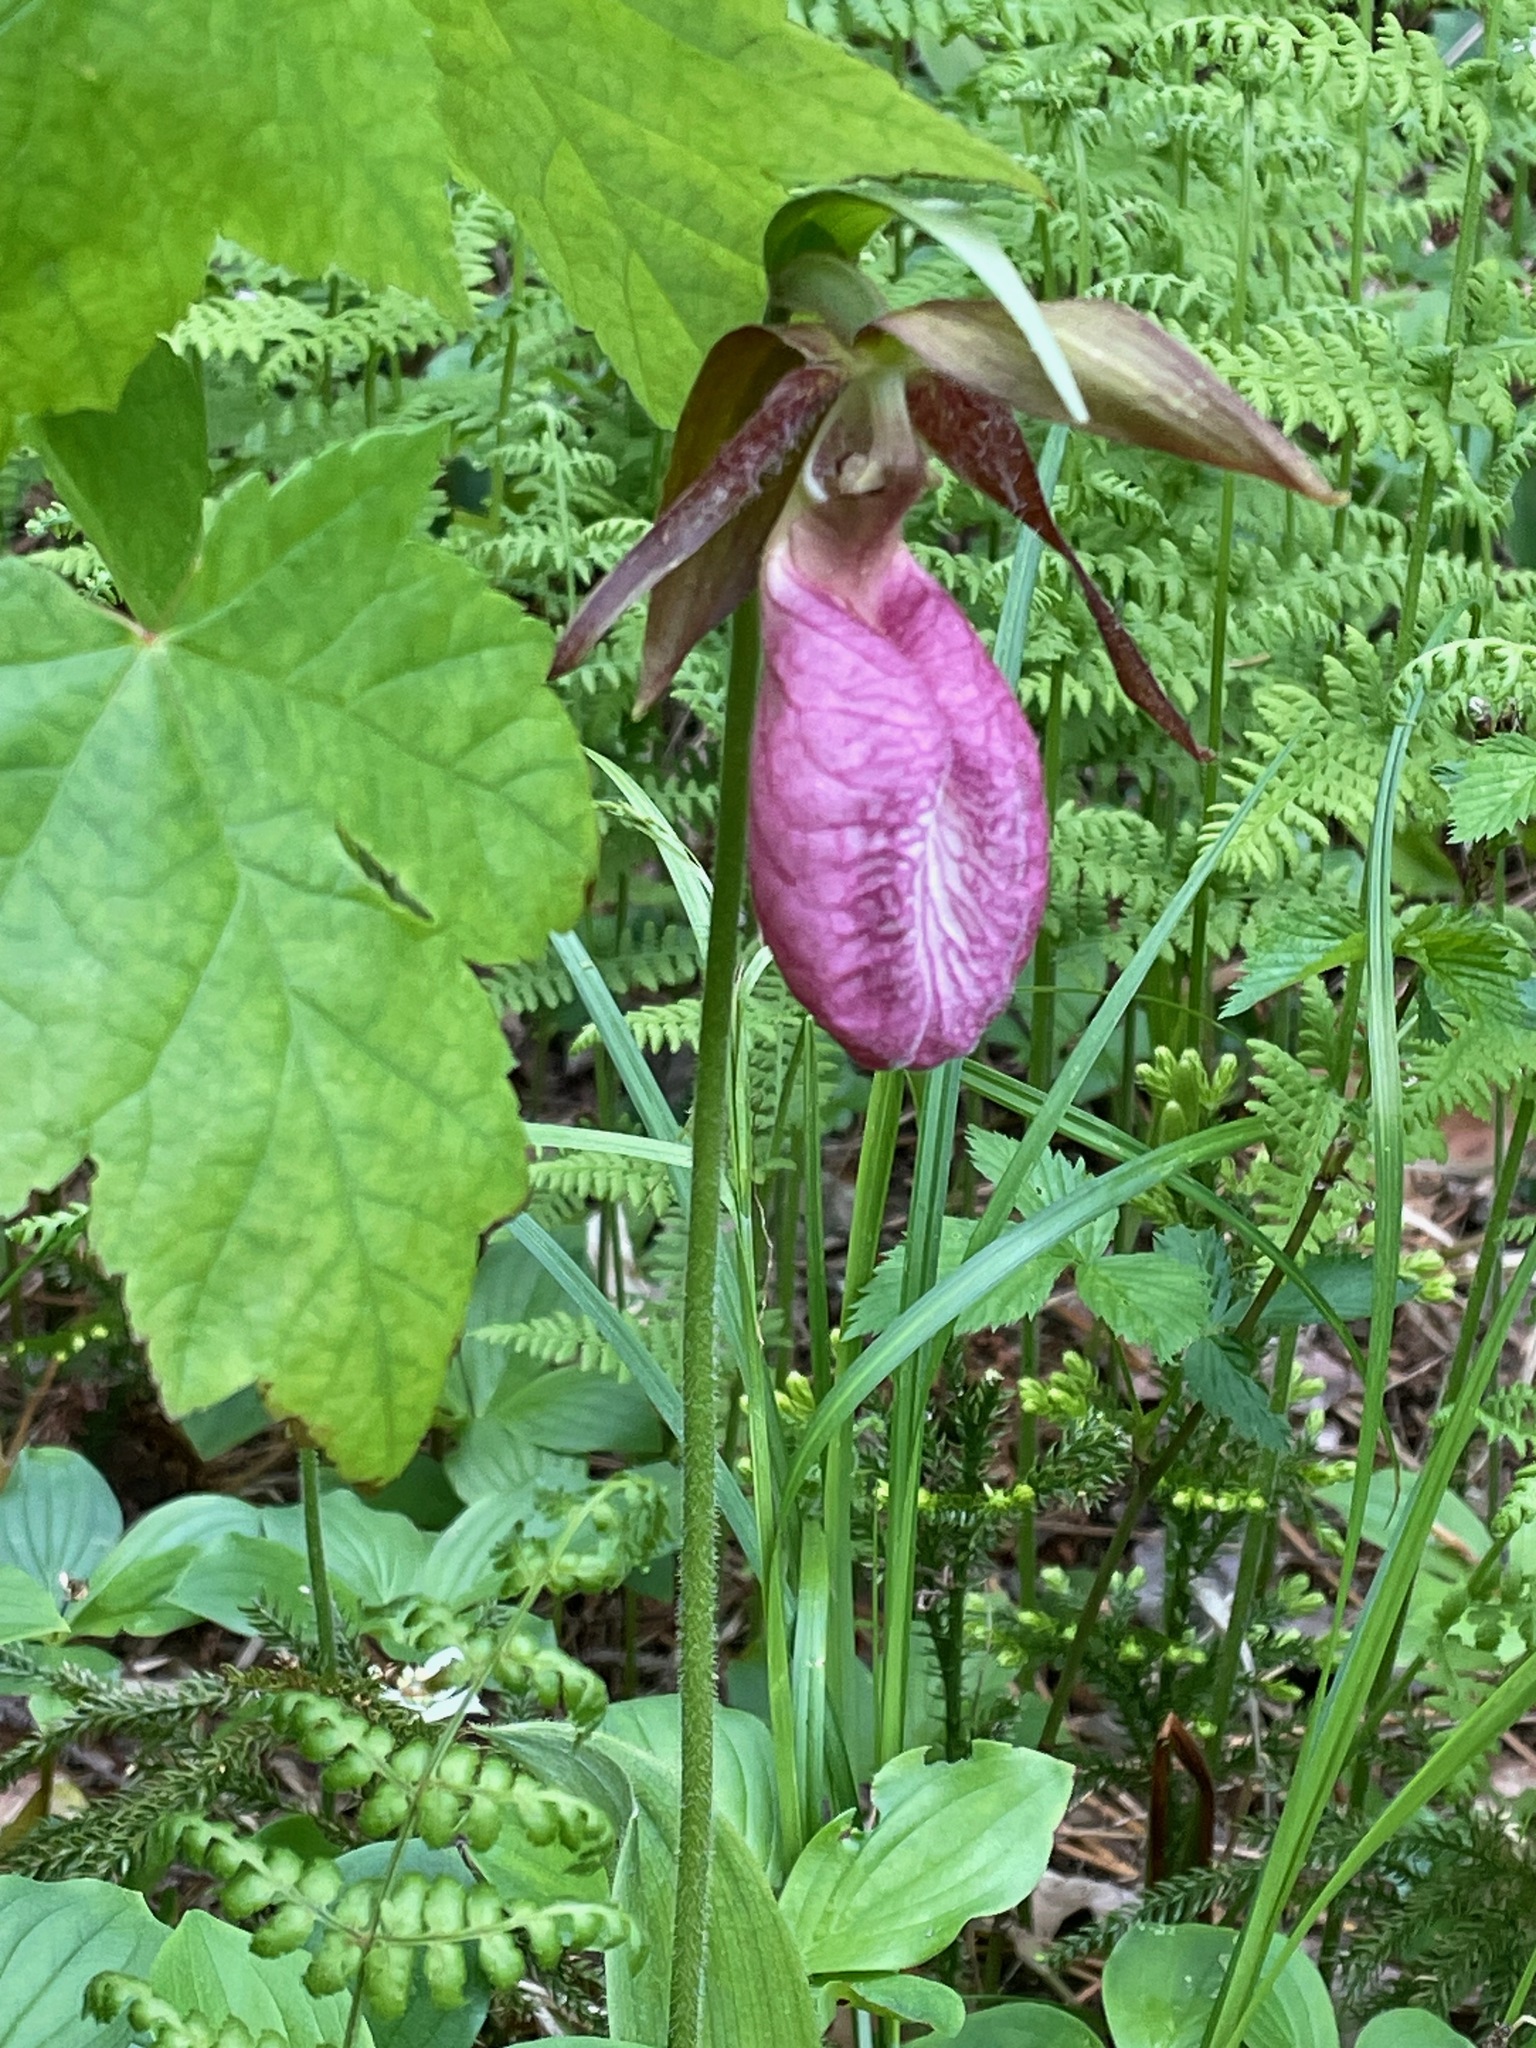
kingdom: Plantae
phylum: Tracheophyta
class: Liliopsida
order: Asparagales
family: Orchidaceae
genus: Cypripedium
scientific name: Cypripedium acaule
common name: Pink lady's-slipper
